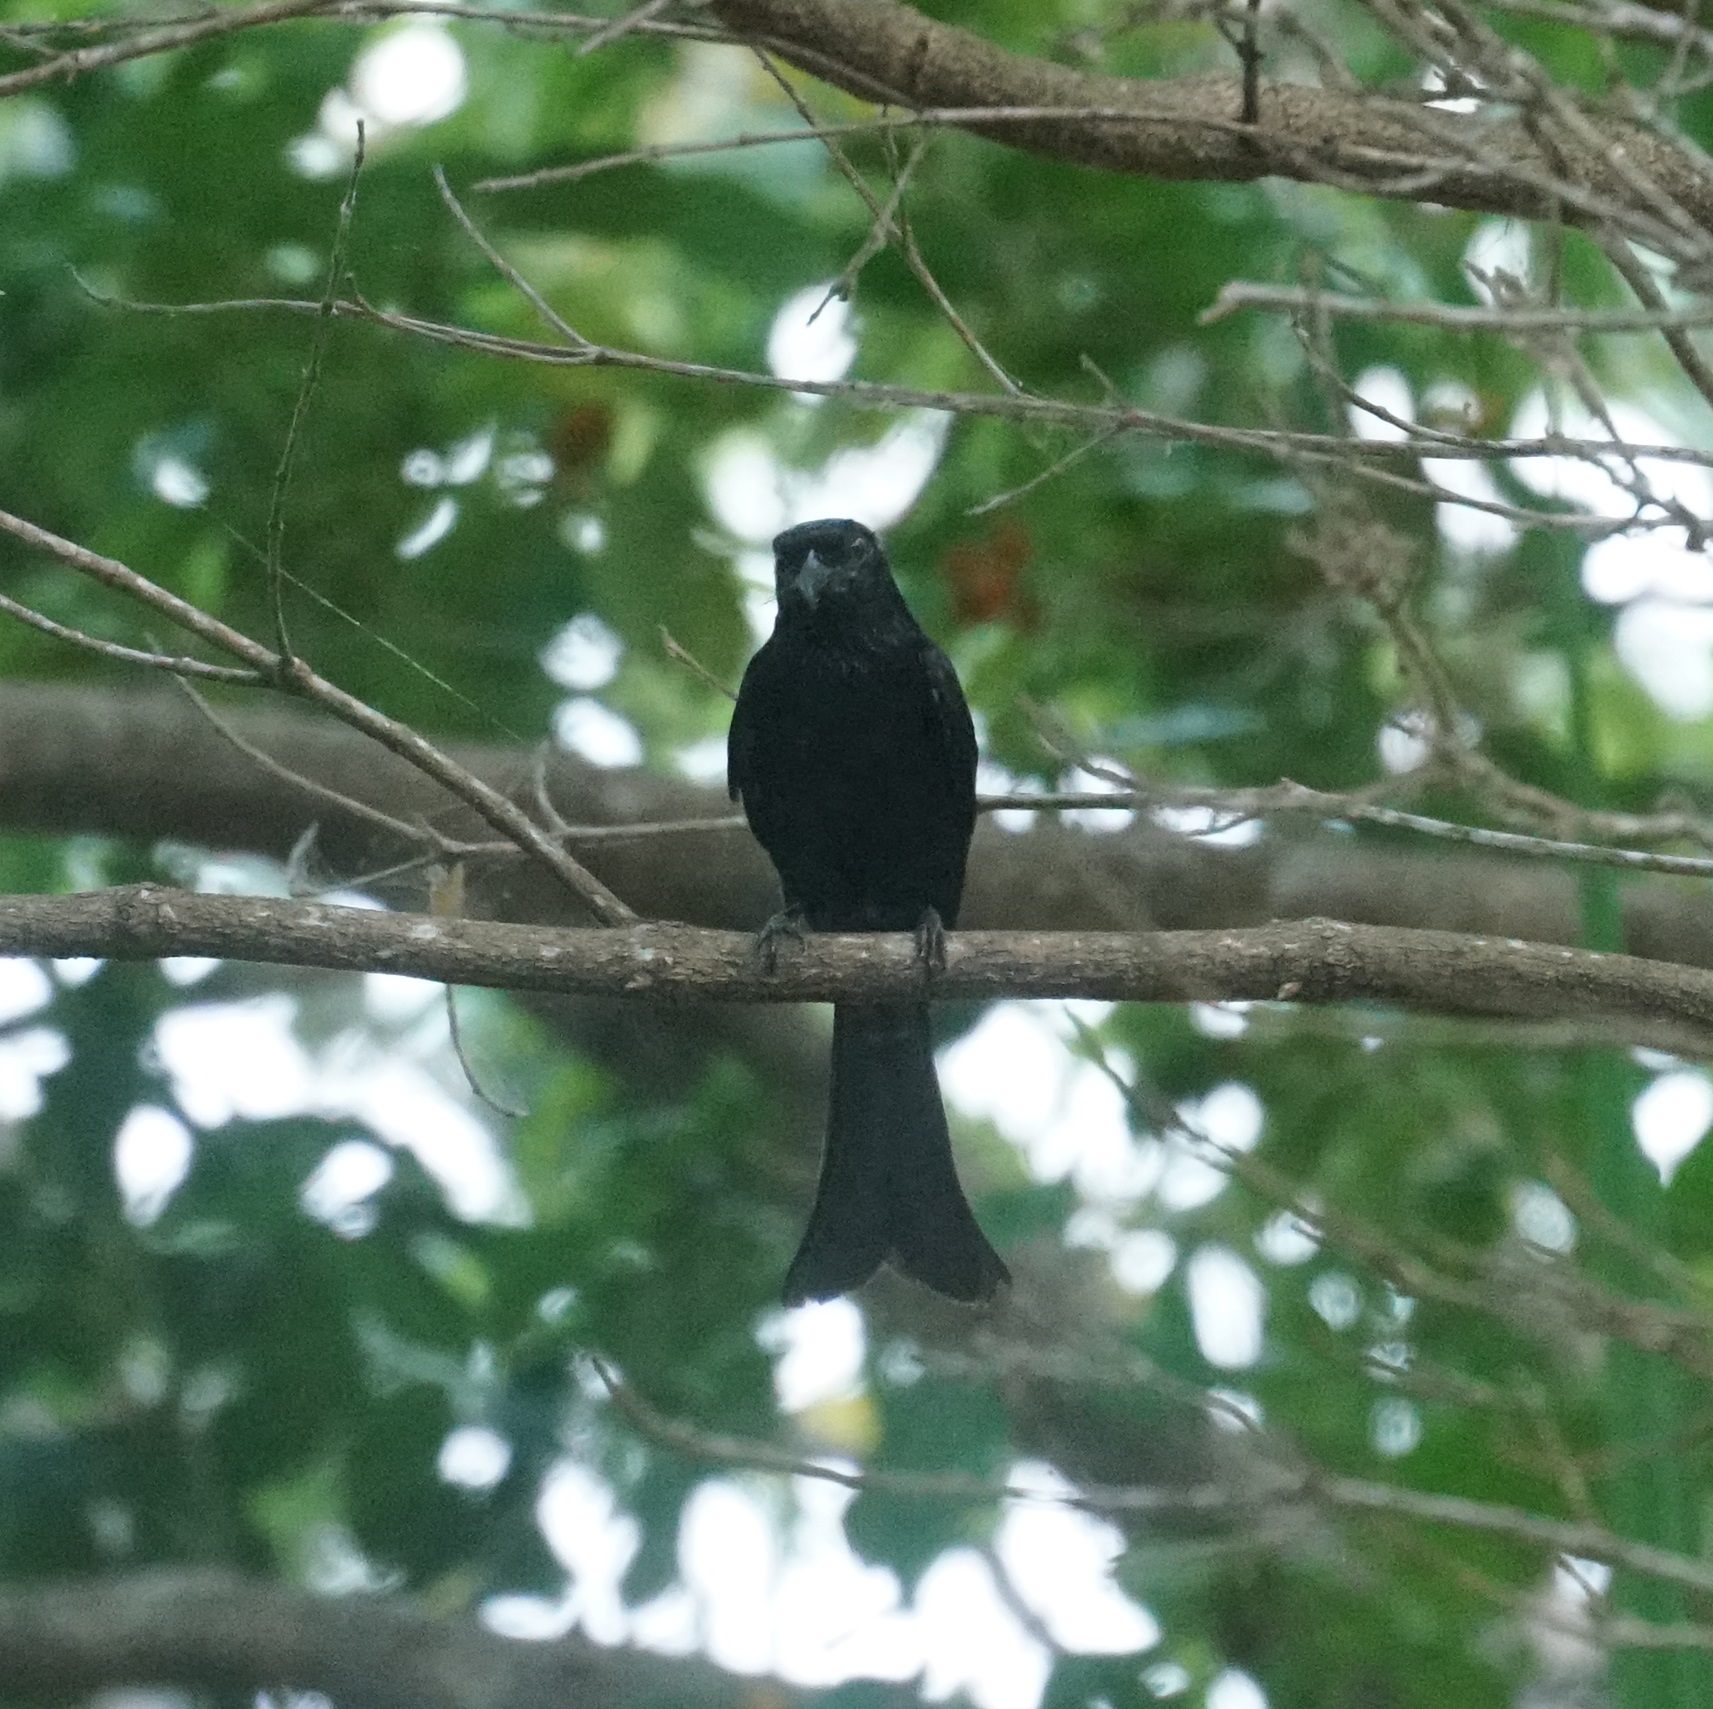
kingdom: Animalia
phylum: Chordata
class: Aves
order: Passeriformes
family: Dicruridae
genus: Dicrurus
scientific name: Dicrurus bracteatus
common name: Spangled drongo
